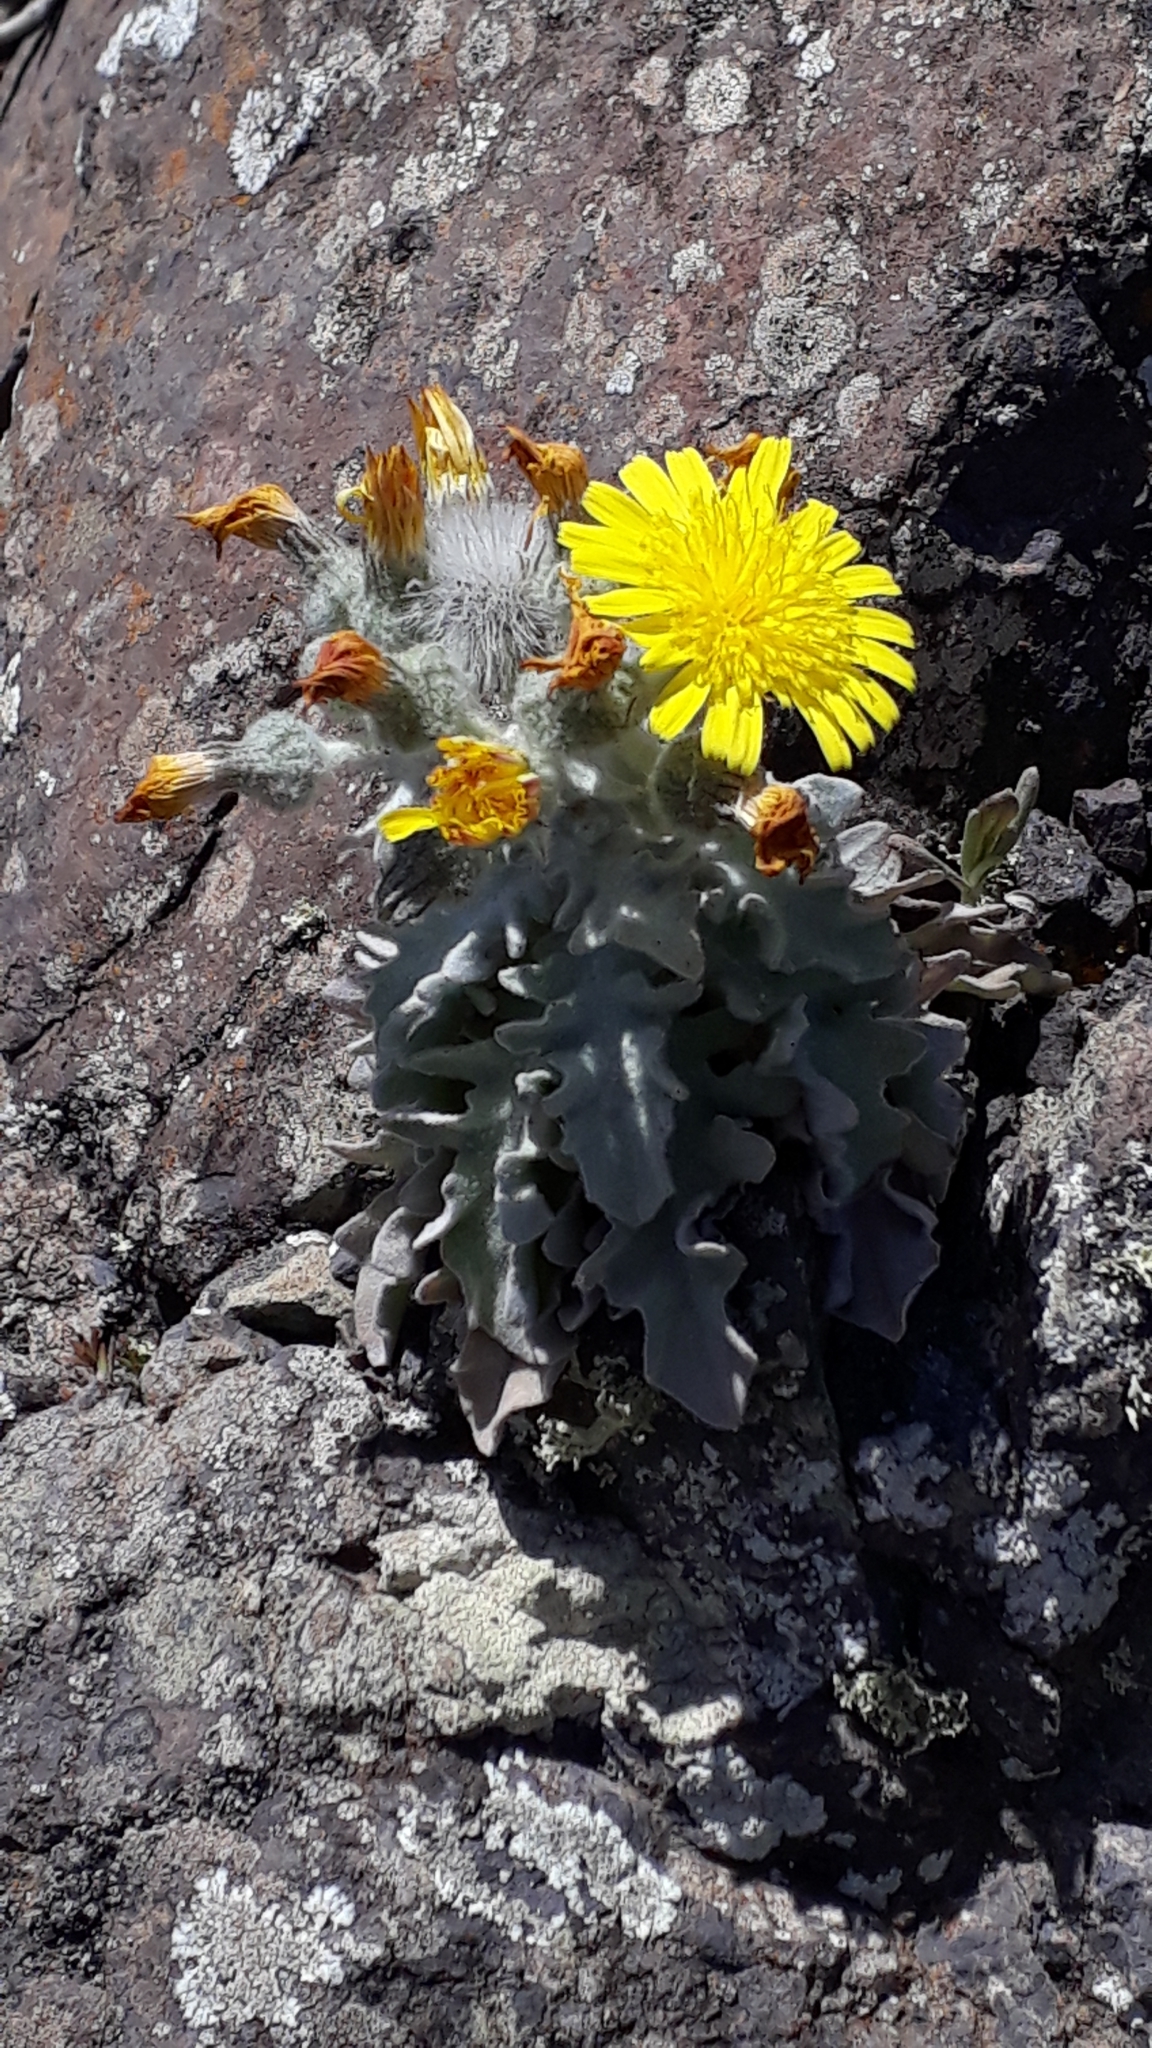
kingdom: Plantae
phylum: Tracheophyta
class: Magnoliopsida
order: Asterales
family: Asteraceae
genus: Andryala
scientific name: Andryala pinnatifida
